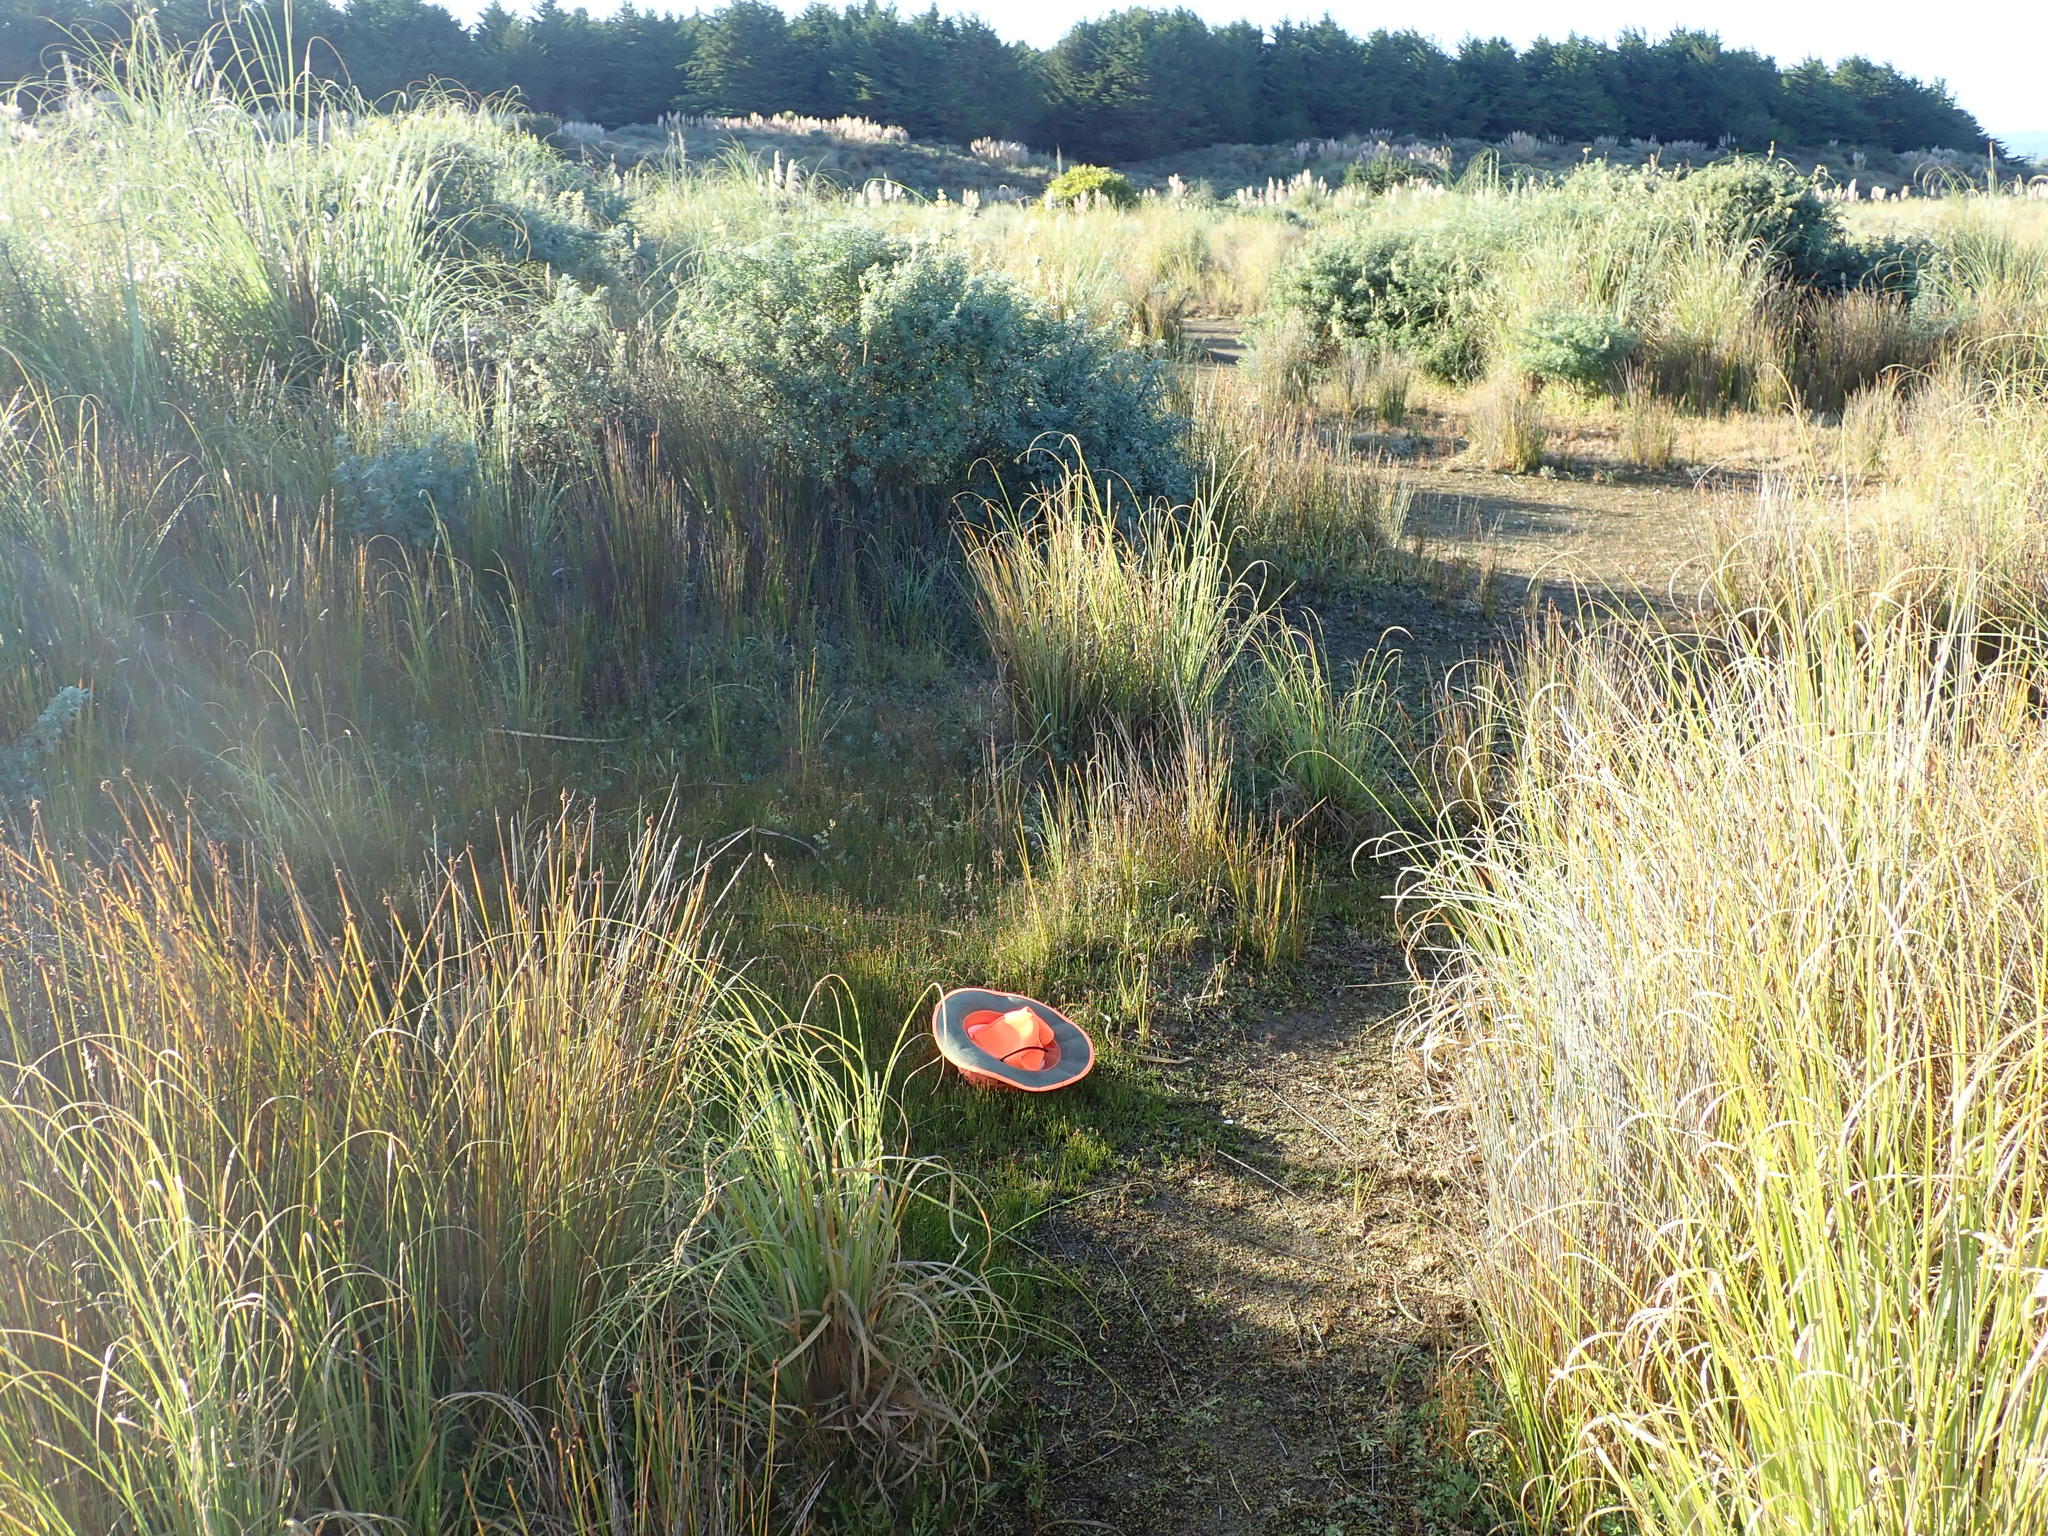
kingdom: Plantae
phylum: Tracheophyta
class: Liliopsida
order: Poales
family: Cyperaceae
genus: Schoenus
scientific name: Schoenus nitens
